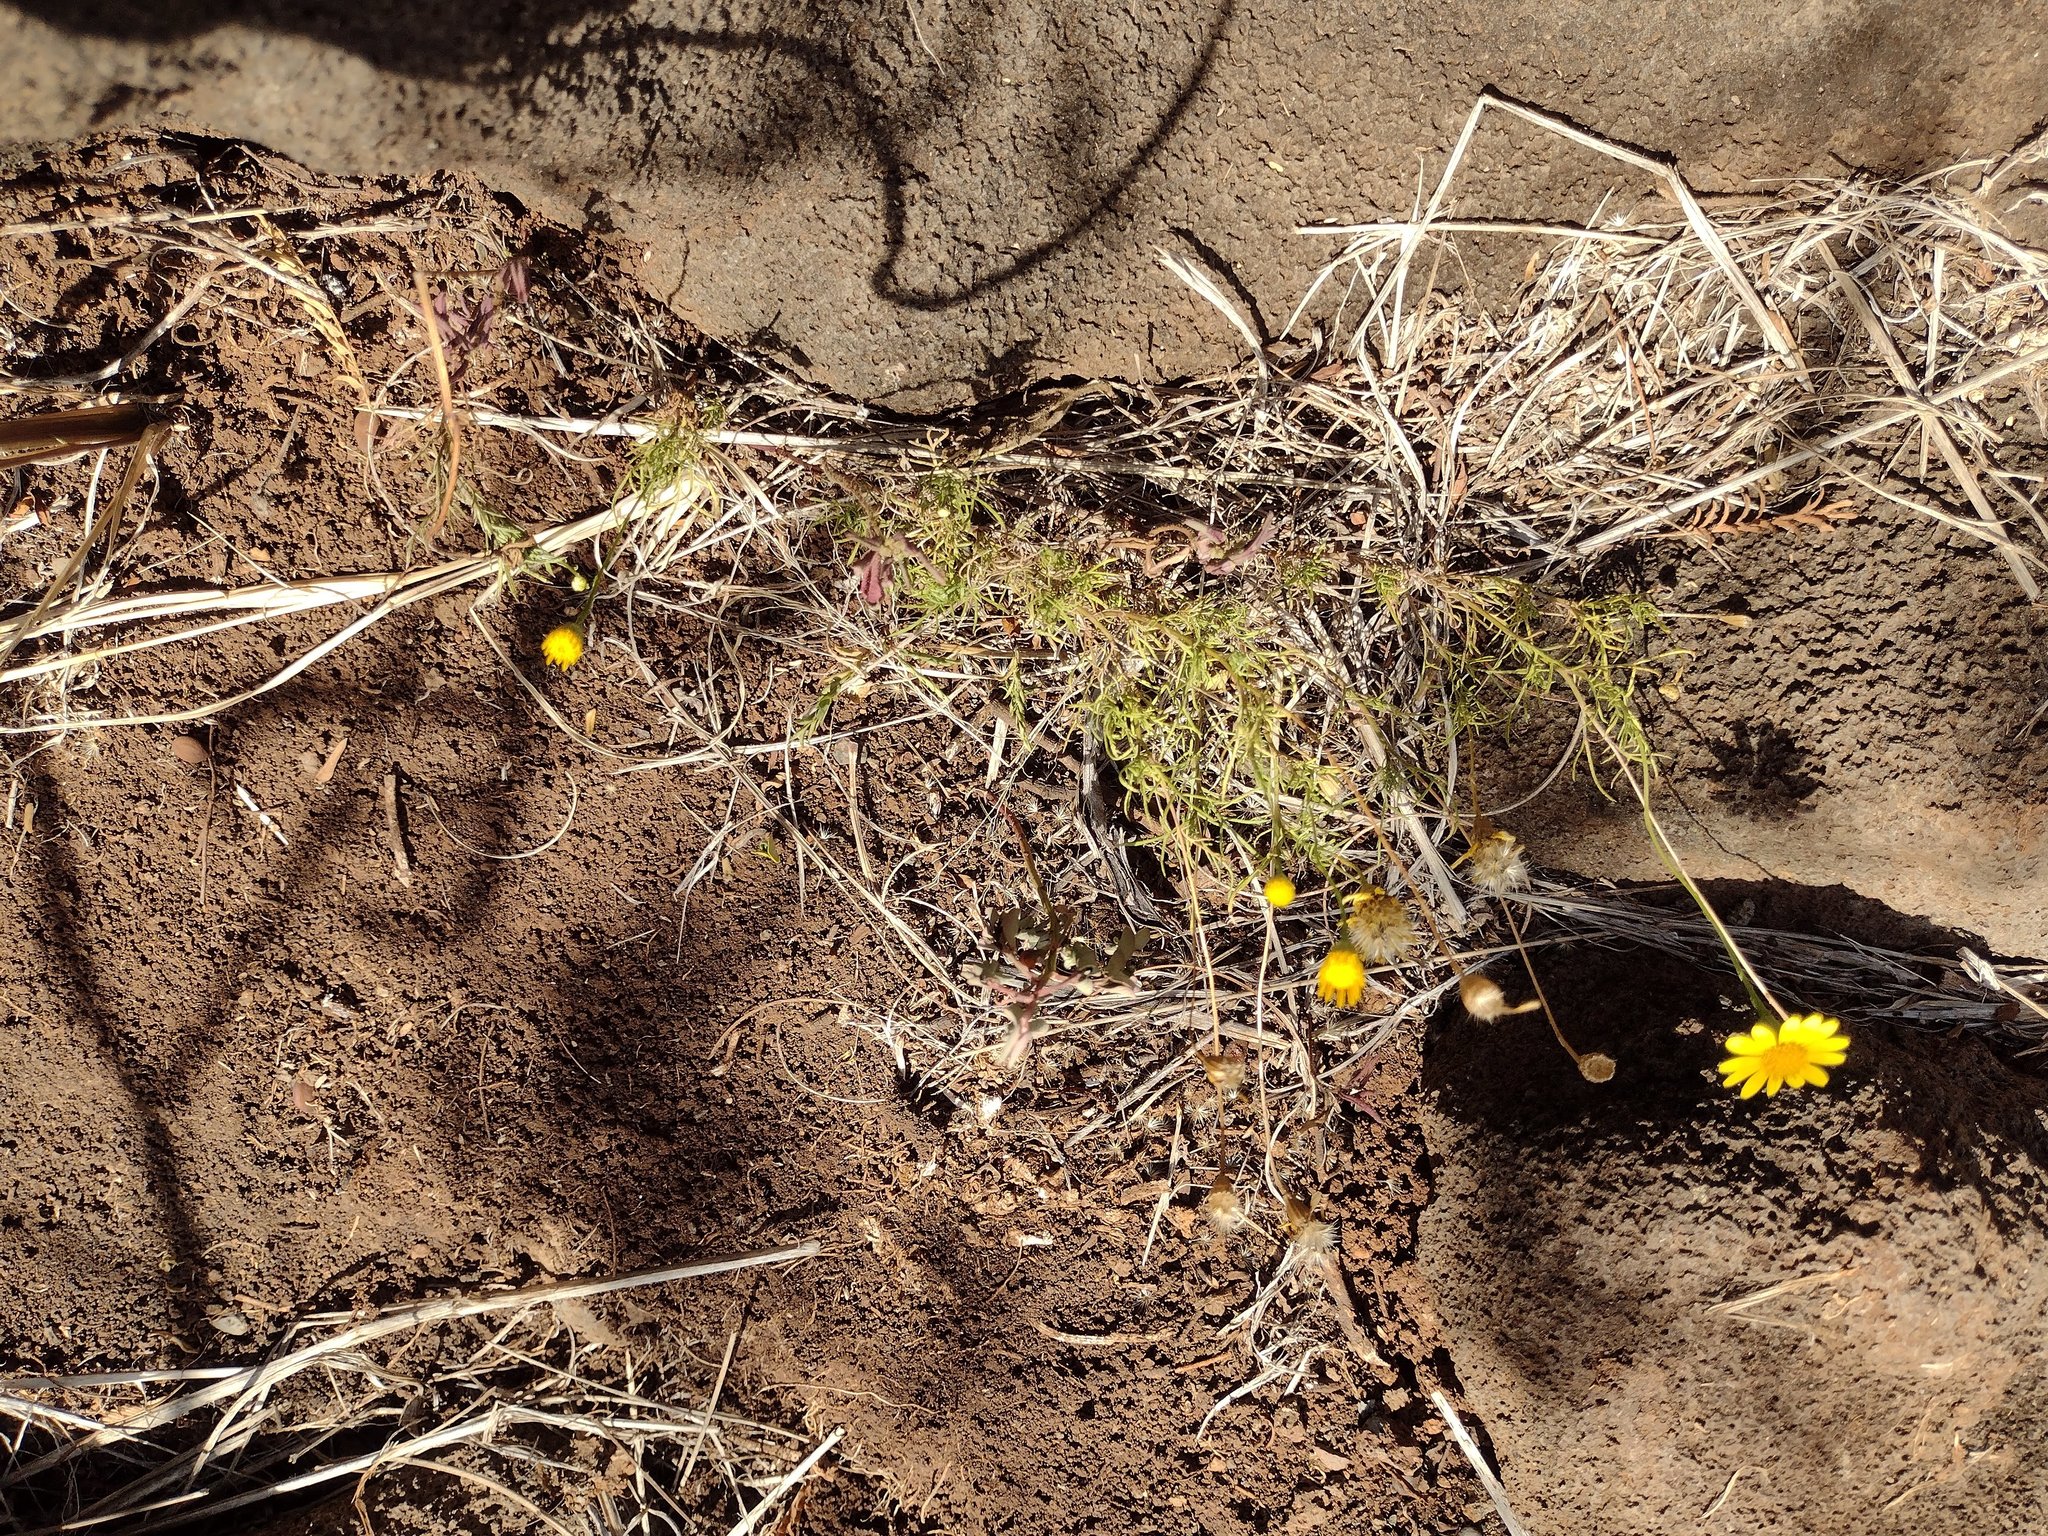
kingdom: Plantae
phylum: Tracheophyta
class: Magnoliopsida
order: Asterales
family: Asteraceae
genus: Thymophylla
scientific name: Thymophylla tenuiloba
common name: Dahlberg's daisy
